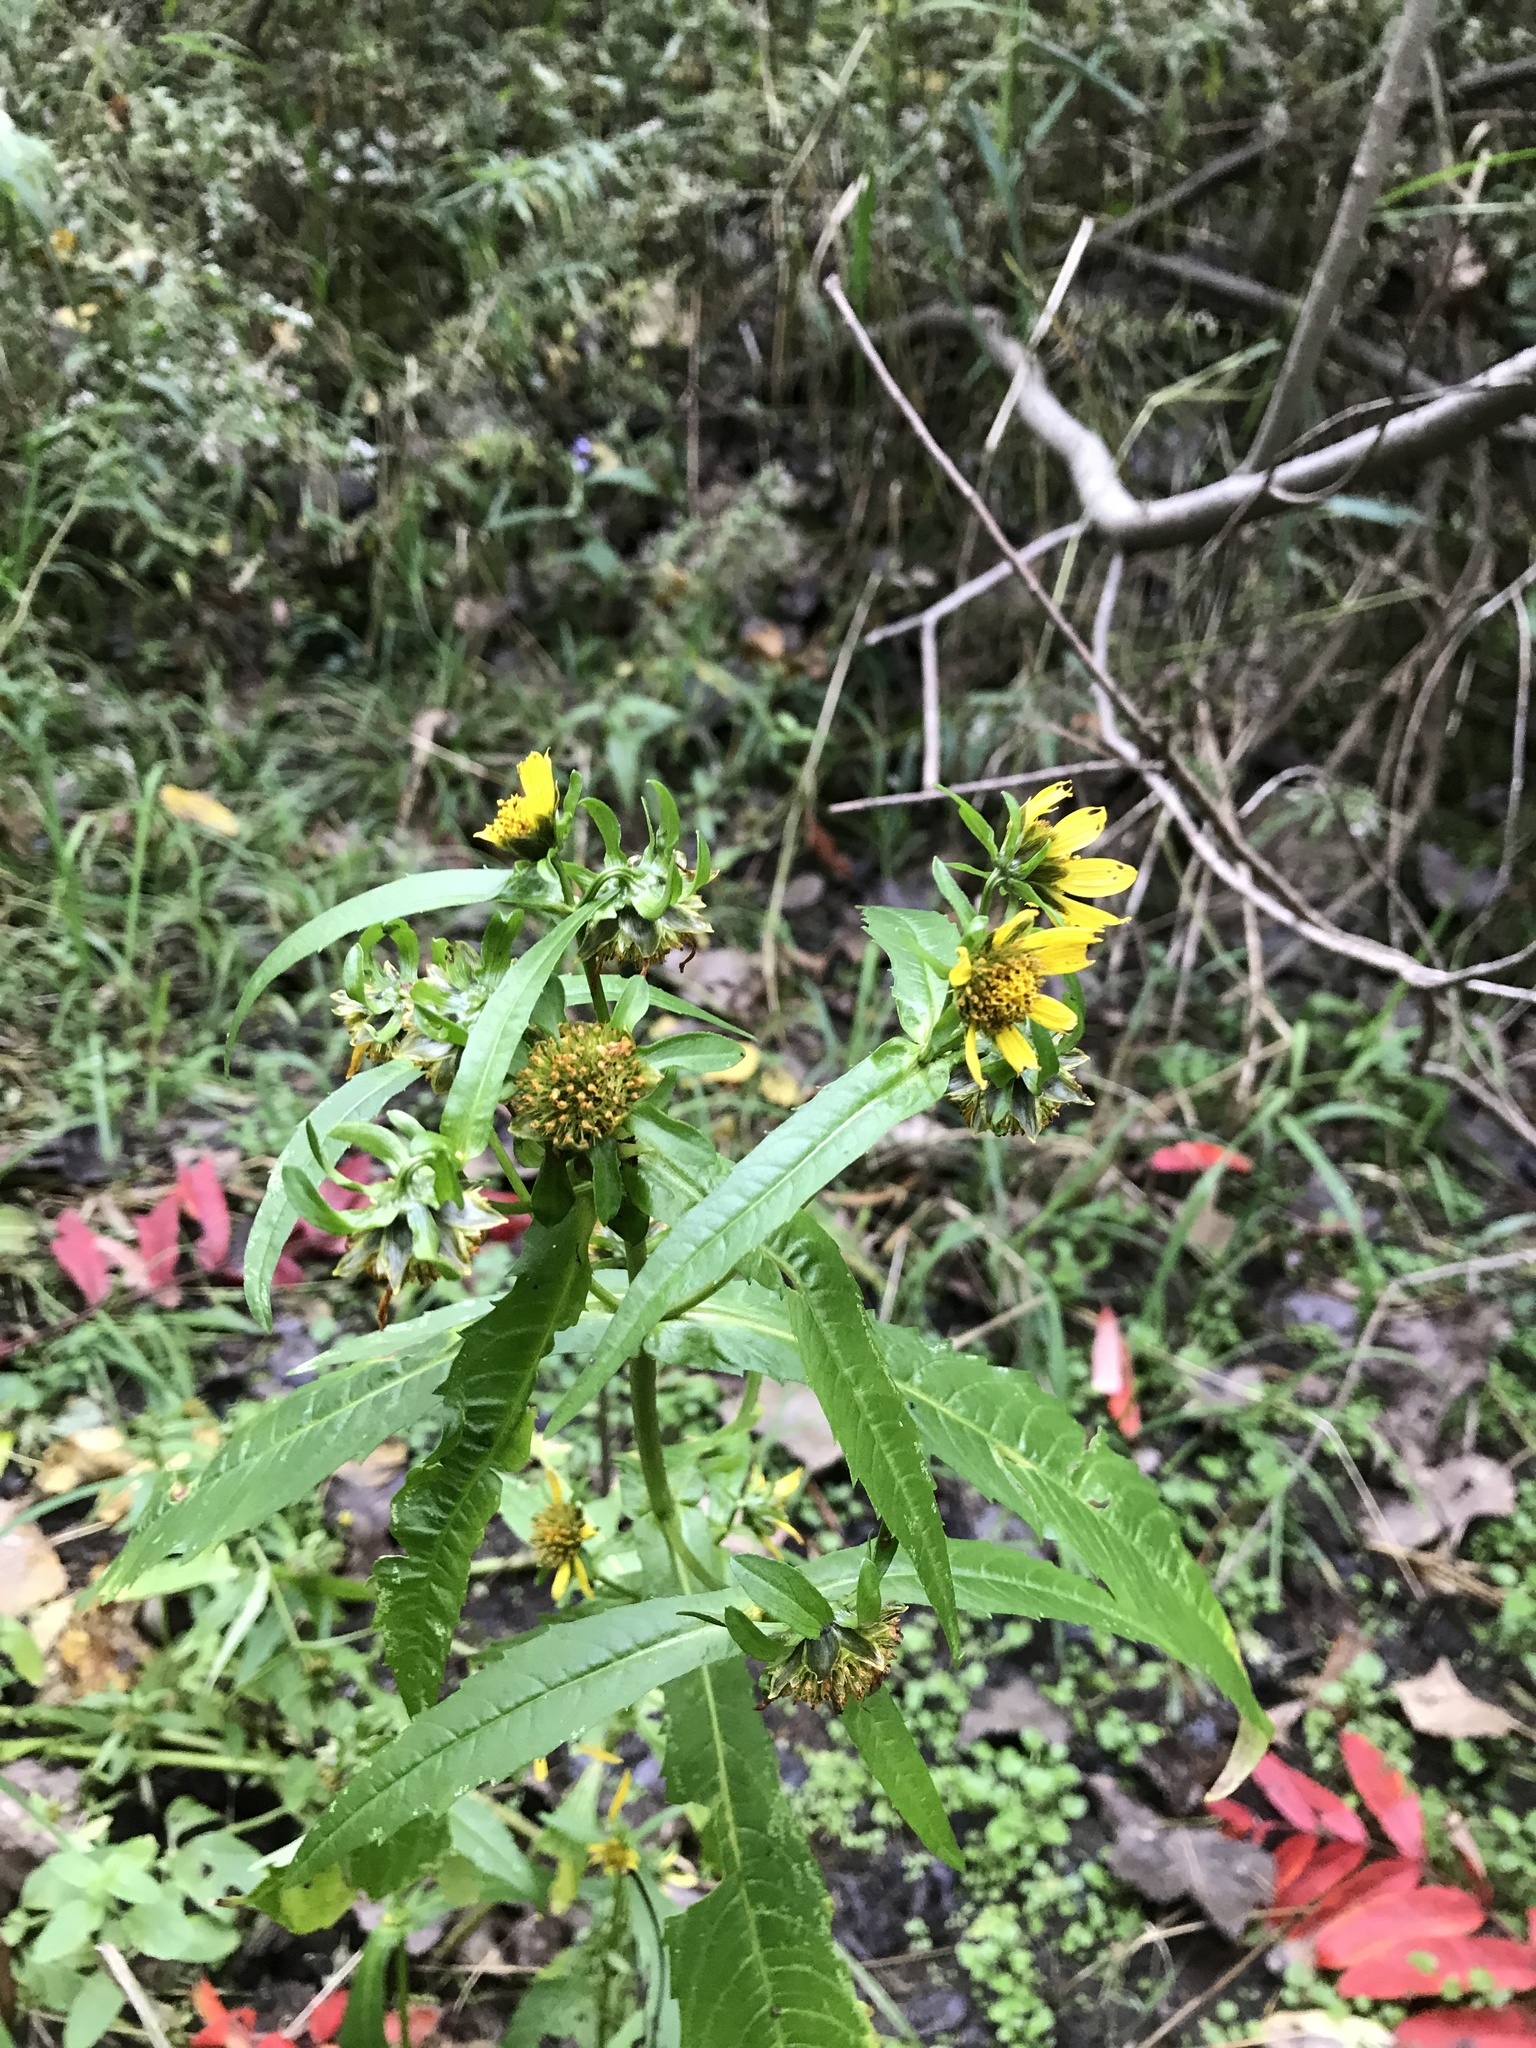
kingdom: Plantae
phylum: Tracheophyta
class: Magnoliopsida
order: Asterales
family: Asteraceae
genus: Bidens
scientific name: Bidens cernua
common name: Nodding bur-marigold
